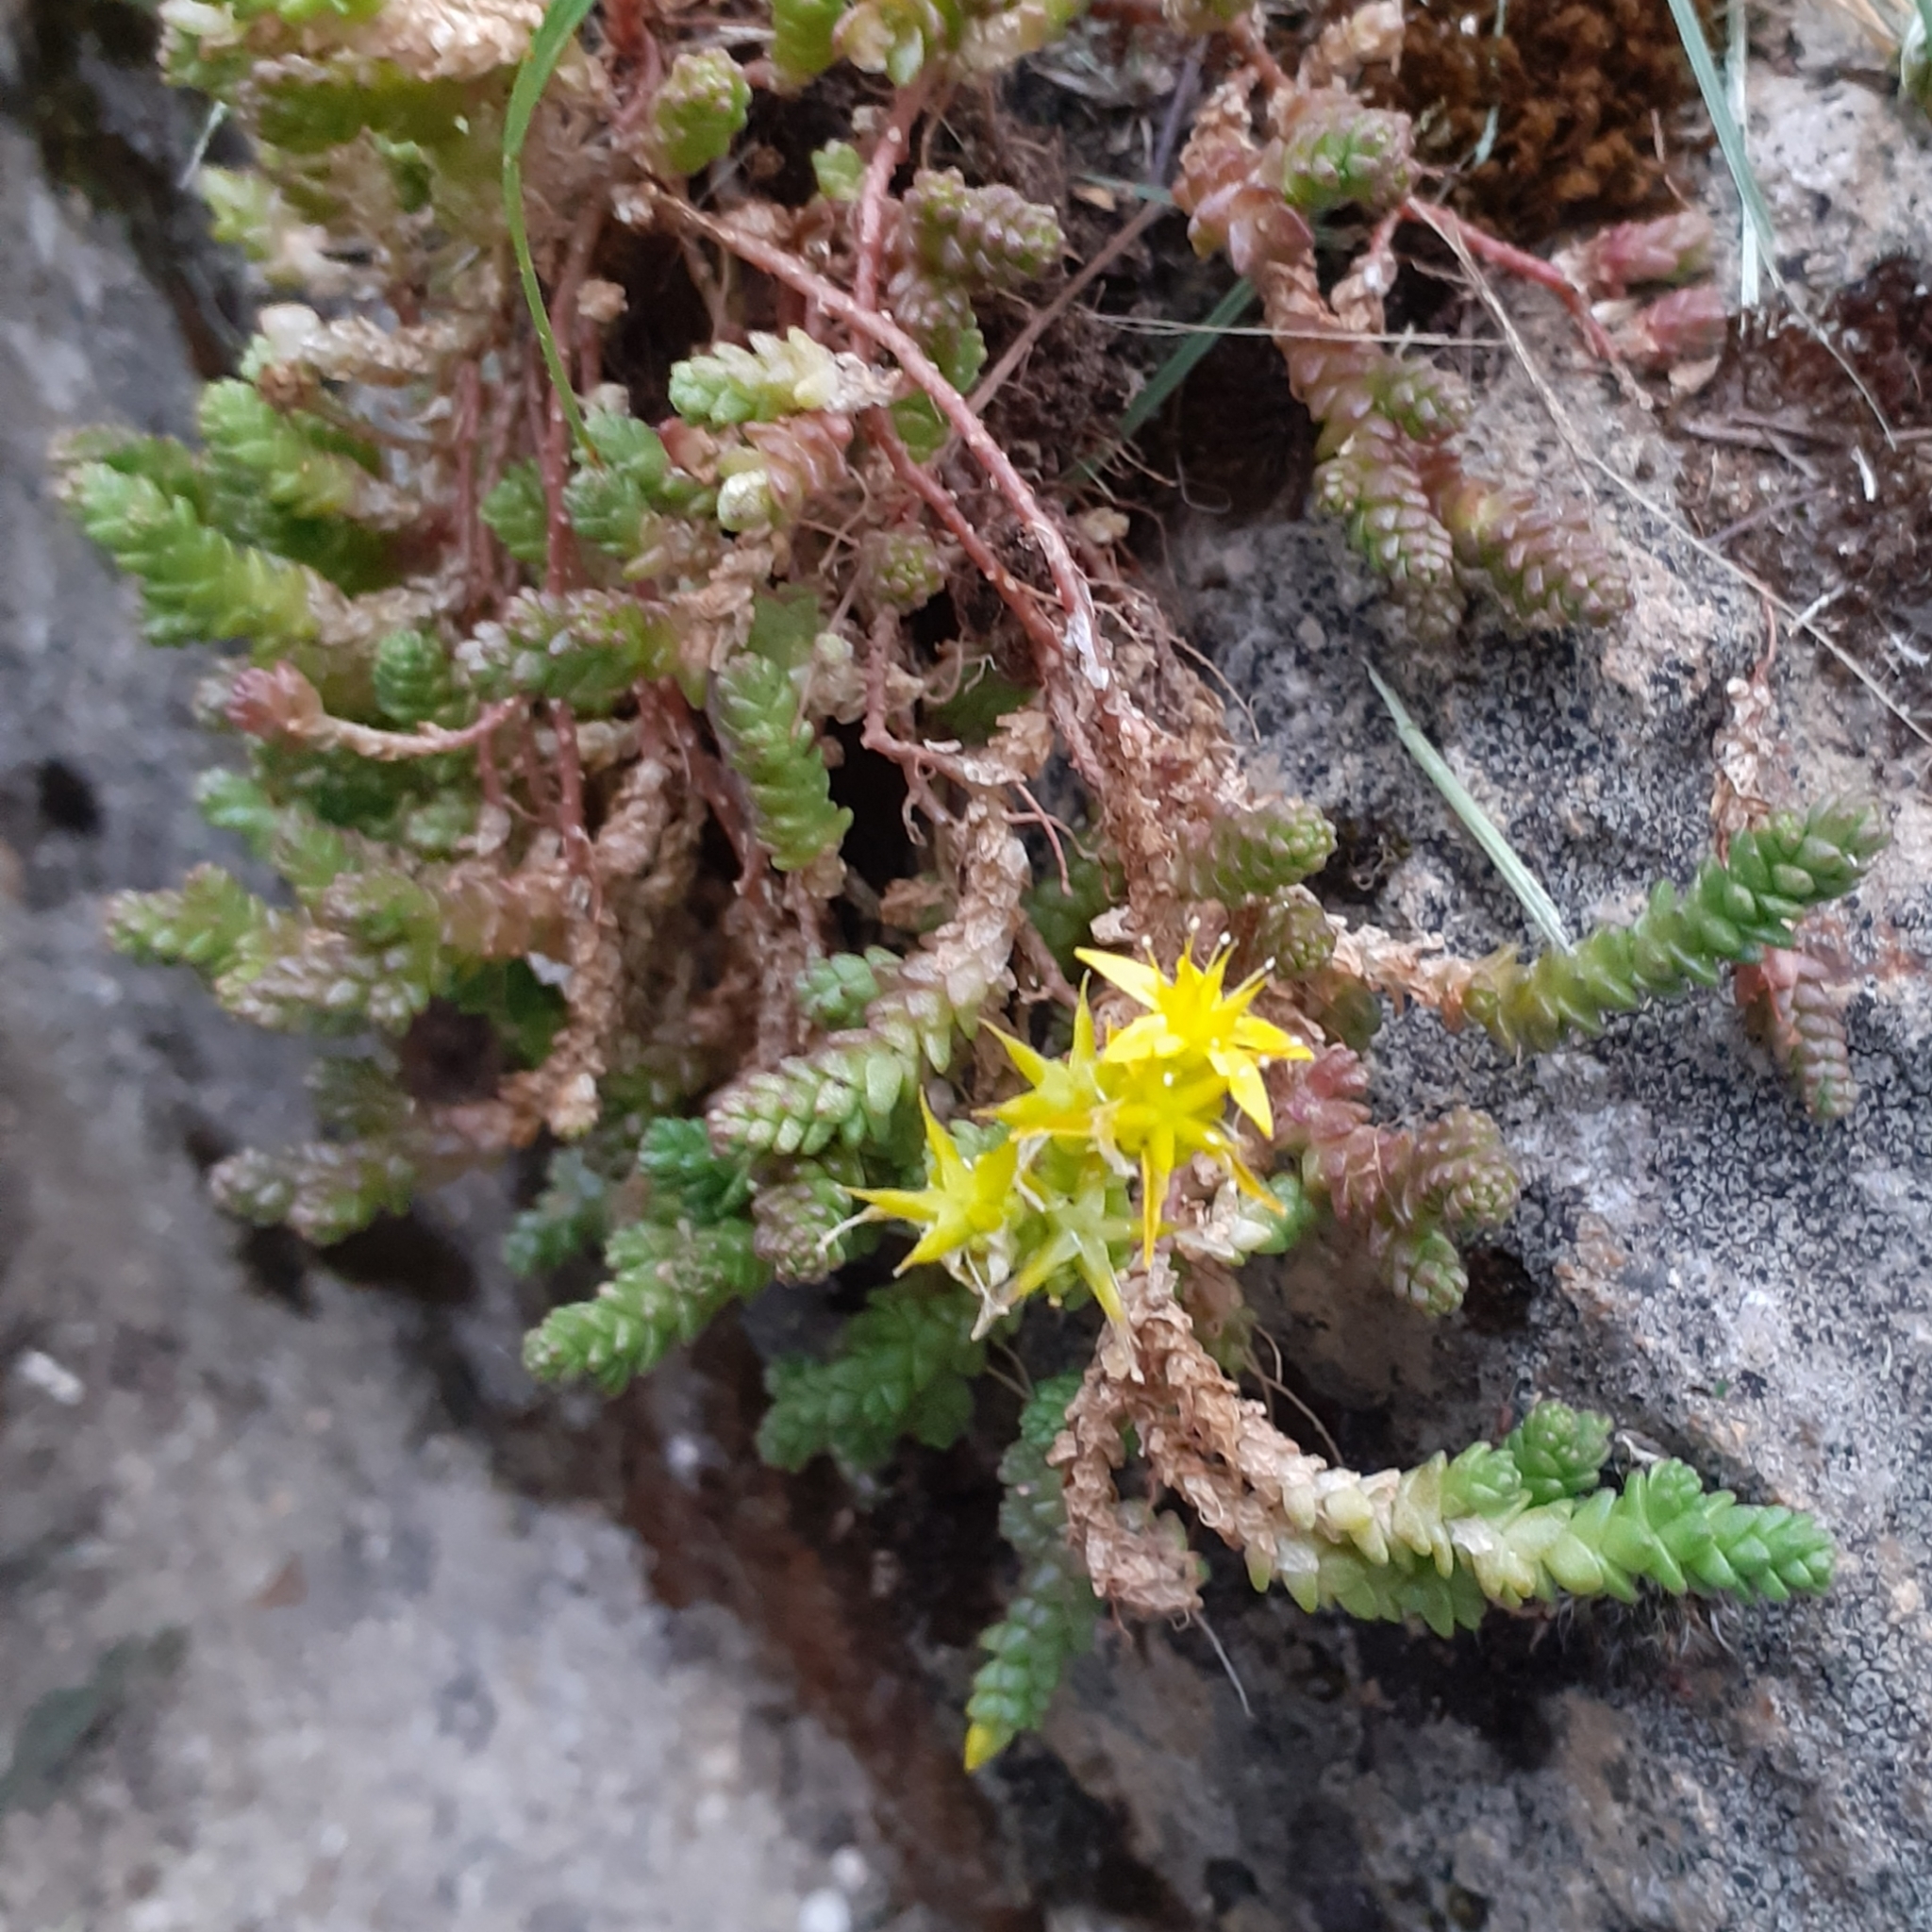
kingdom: Plantae
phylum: Tracheophyta
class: Magnoliopsida
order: Saxifragales
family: Crassulaceae
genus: Sedum
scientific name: Sedum acre
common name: Biting stonecrop
